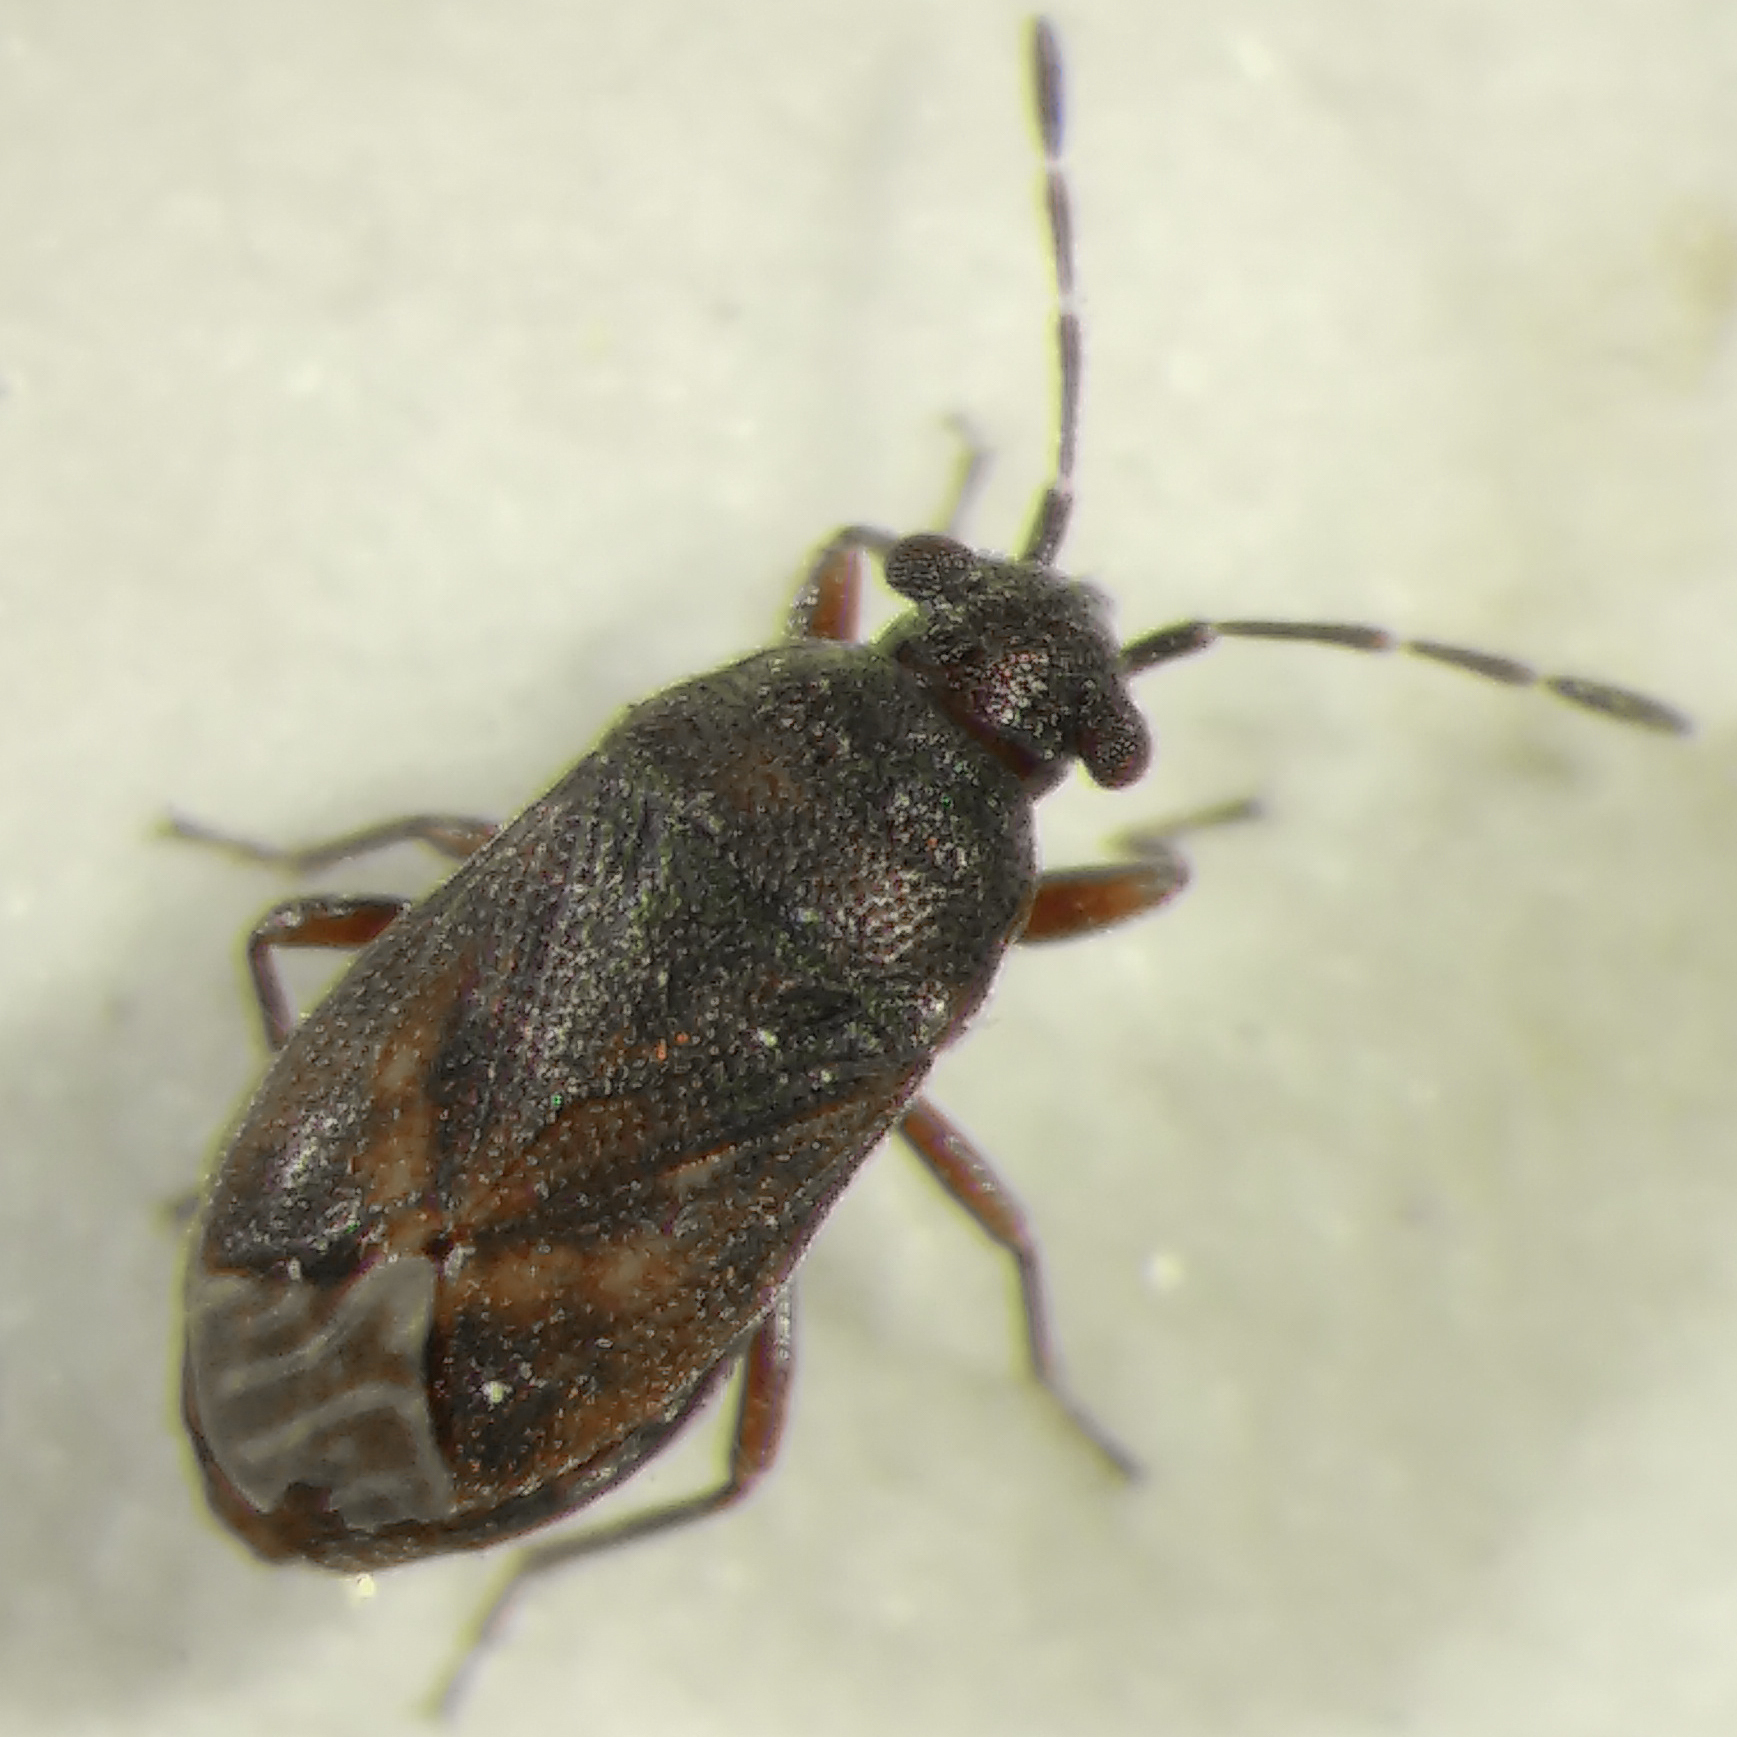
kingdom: Animalia
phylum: Arthropoda
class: Insecta
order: Hemiptera
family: Rhyparochromidae
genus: Stygnocoris
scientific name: Stygnocoris fuligineus
